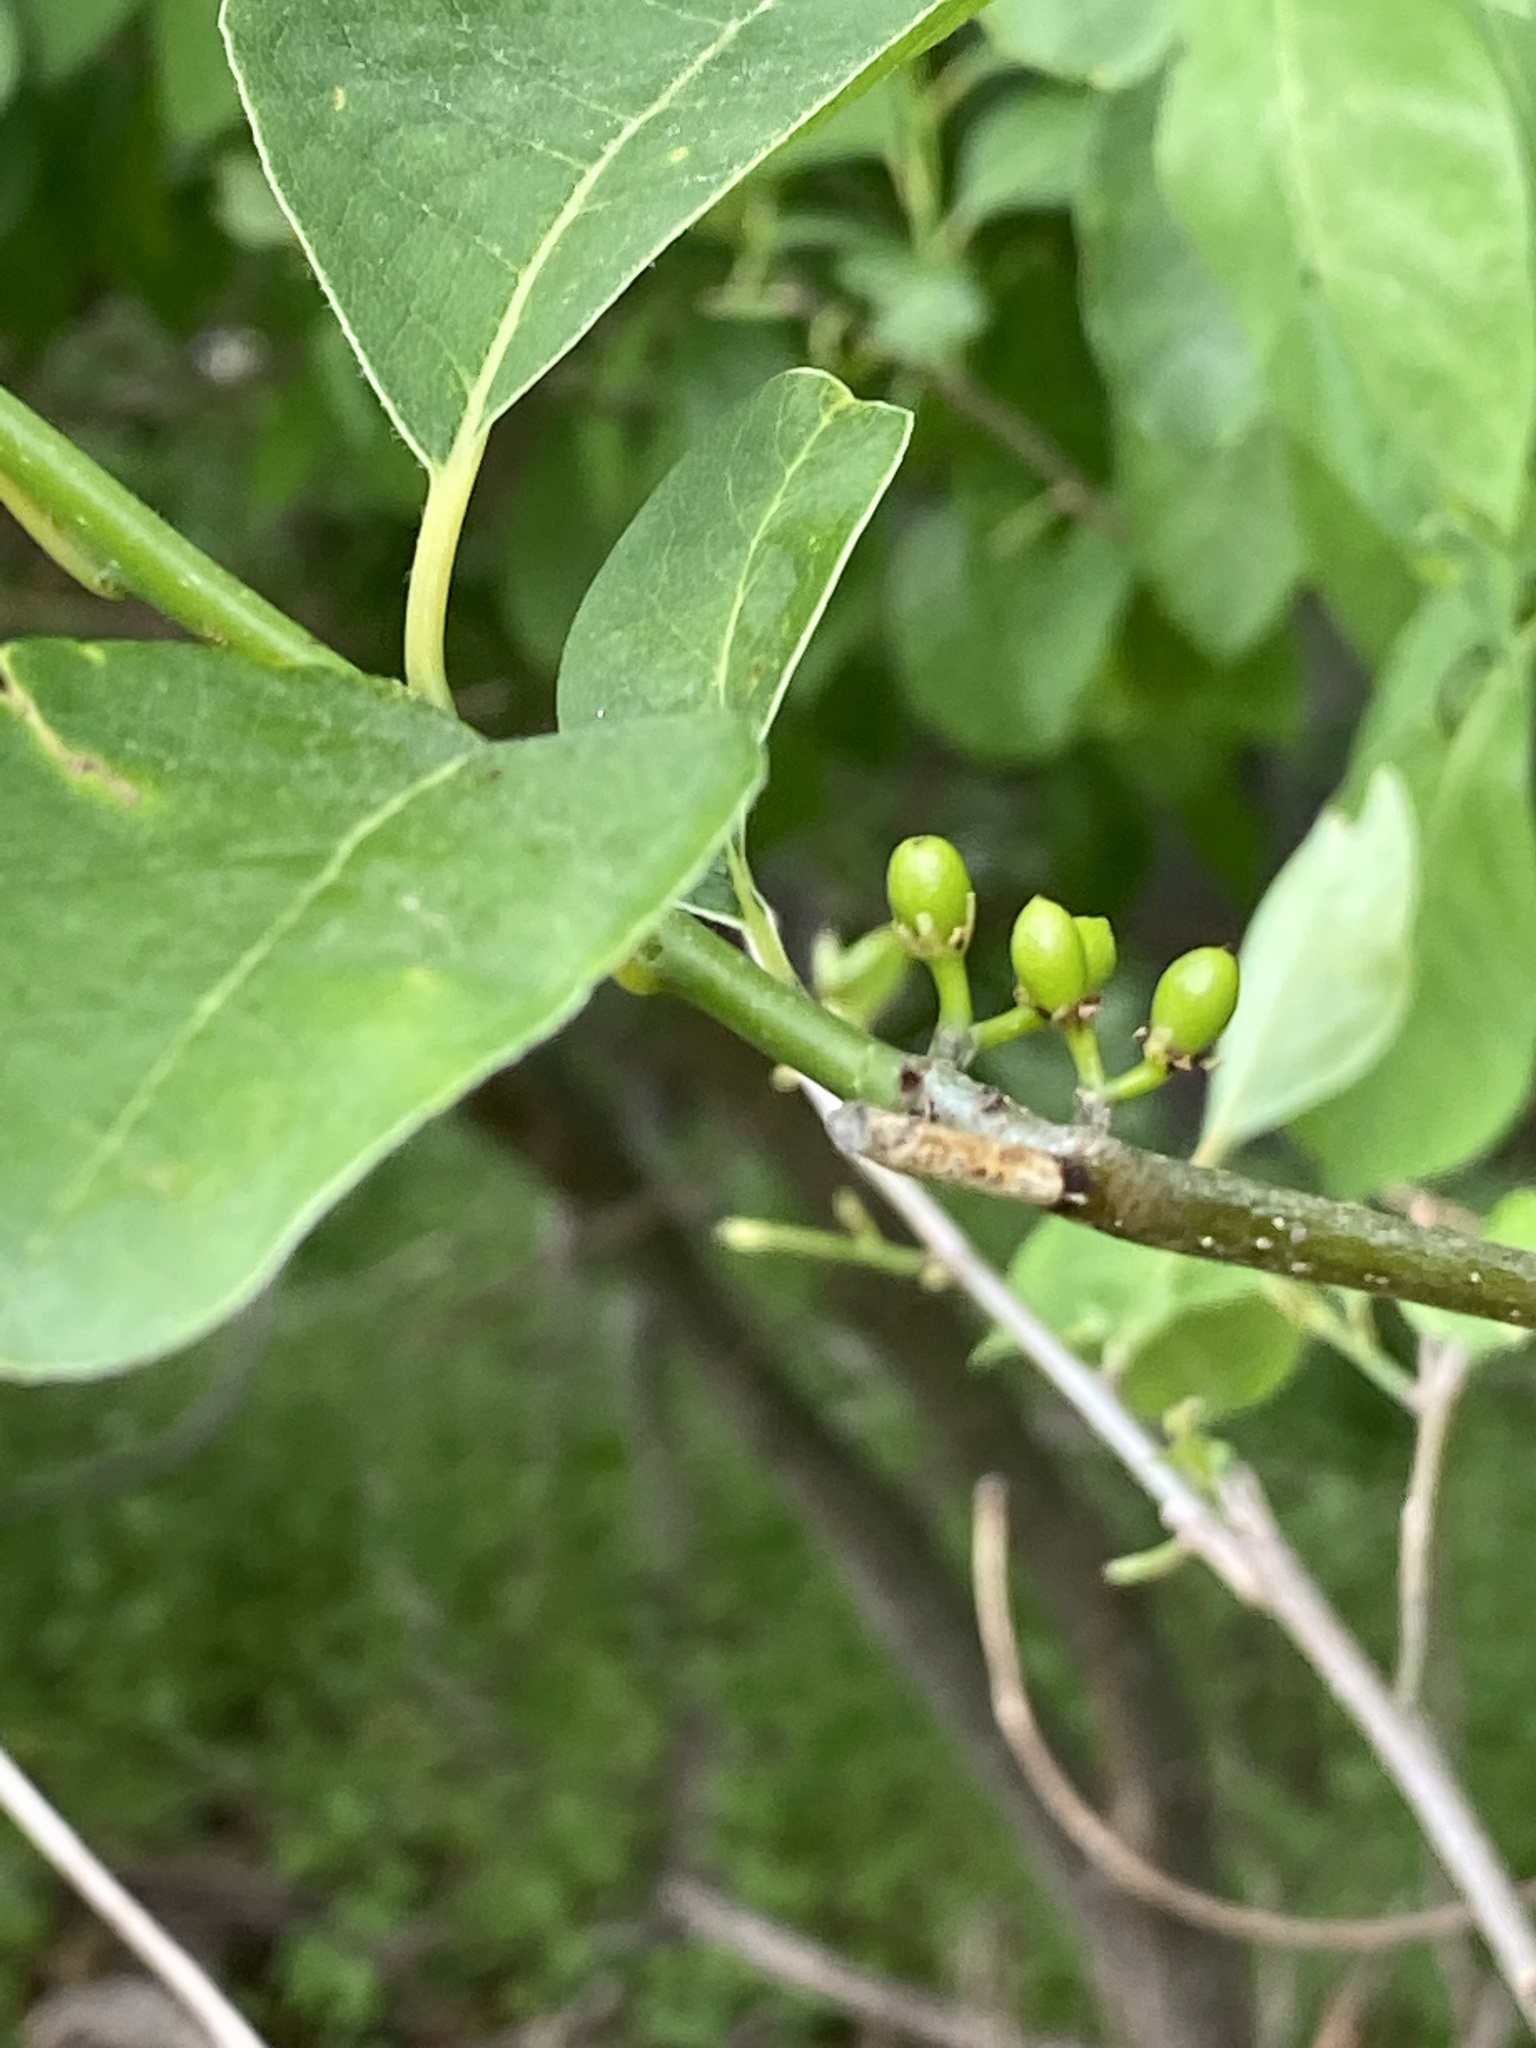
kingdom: Plantae
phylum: Tracheophyta
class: Magnoliopsida
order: Laurales
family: Lauraceae
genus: Lindera
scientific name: Lindera benzoin
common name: Spicebush
